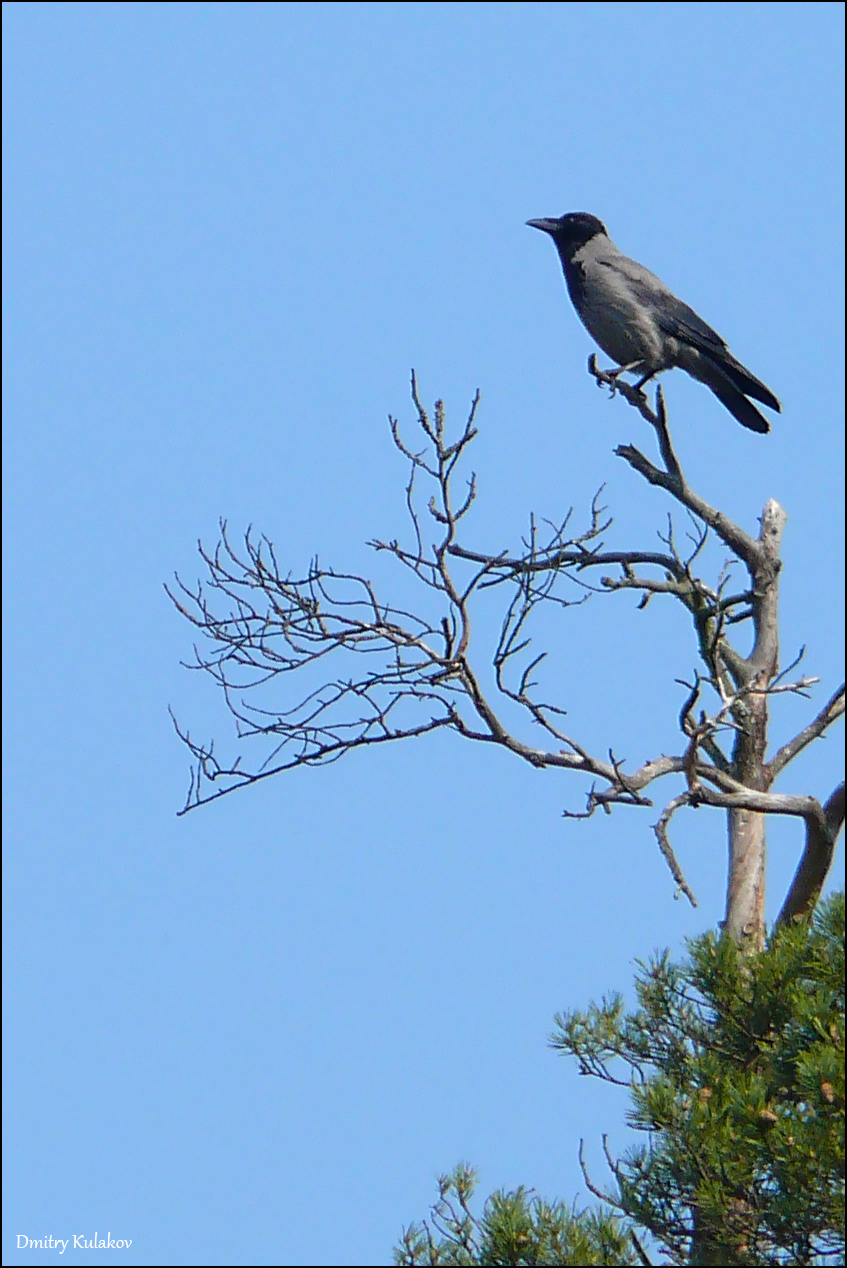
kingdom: Animalia
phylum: Chordata
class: Aves
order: Passeriformes
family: Corvidae
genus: Corvus
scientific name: Corvus cornix
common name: Hooded crow
